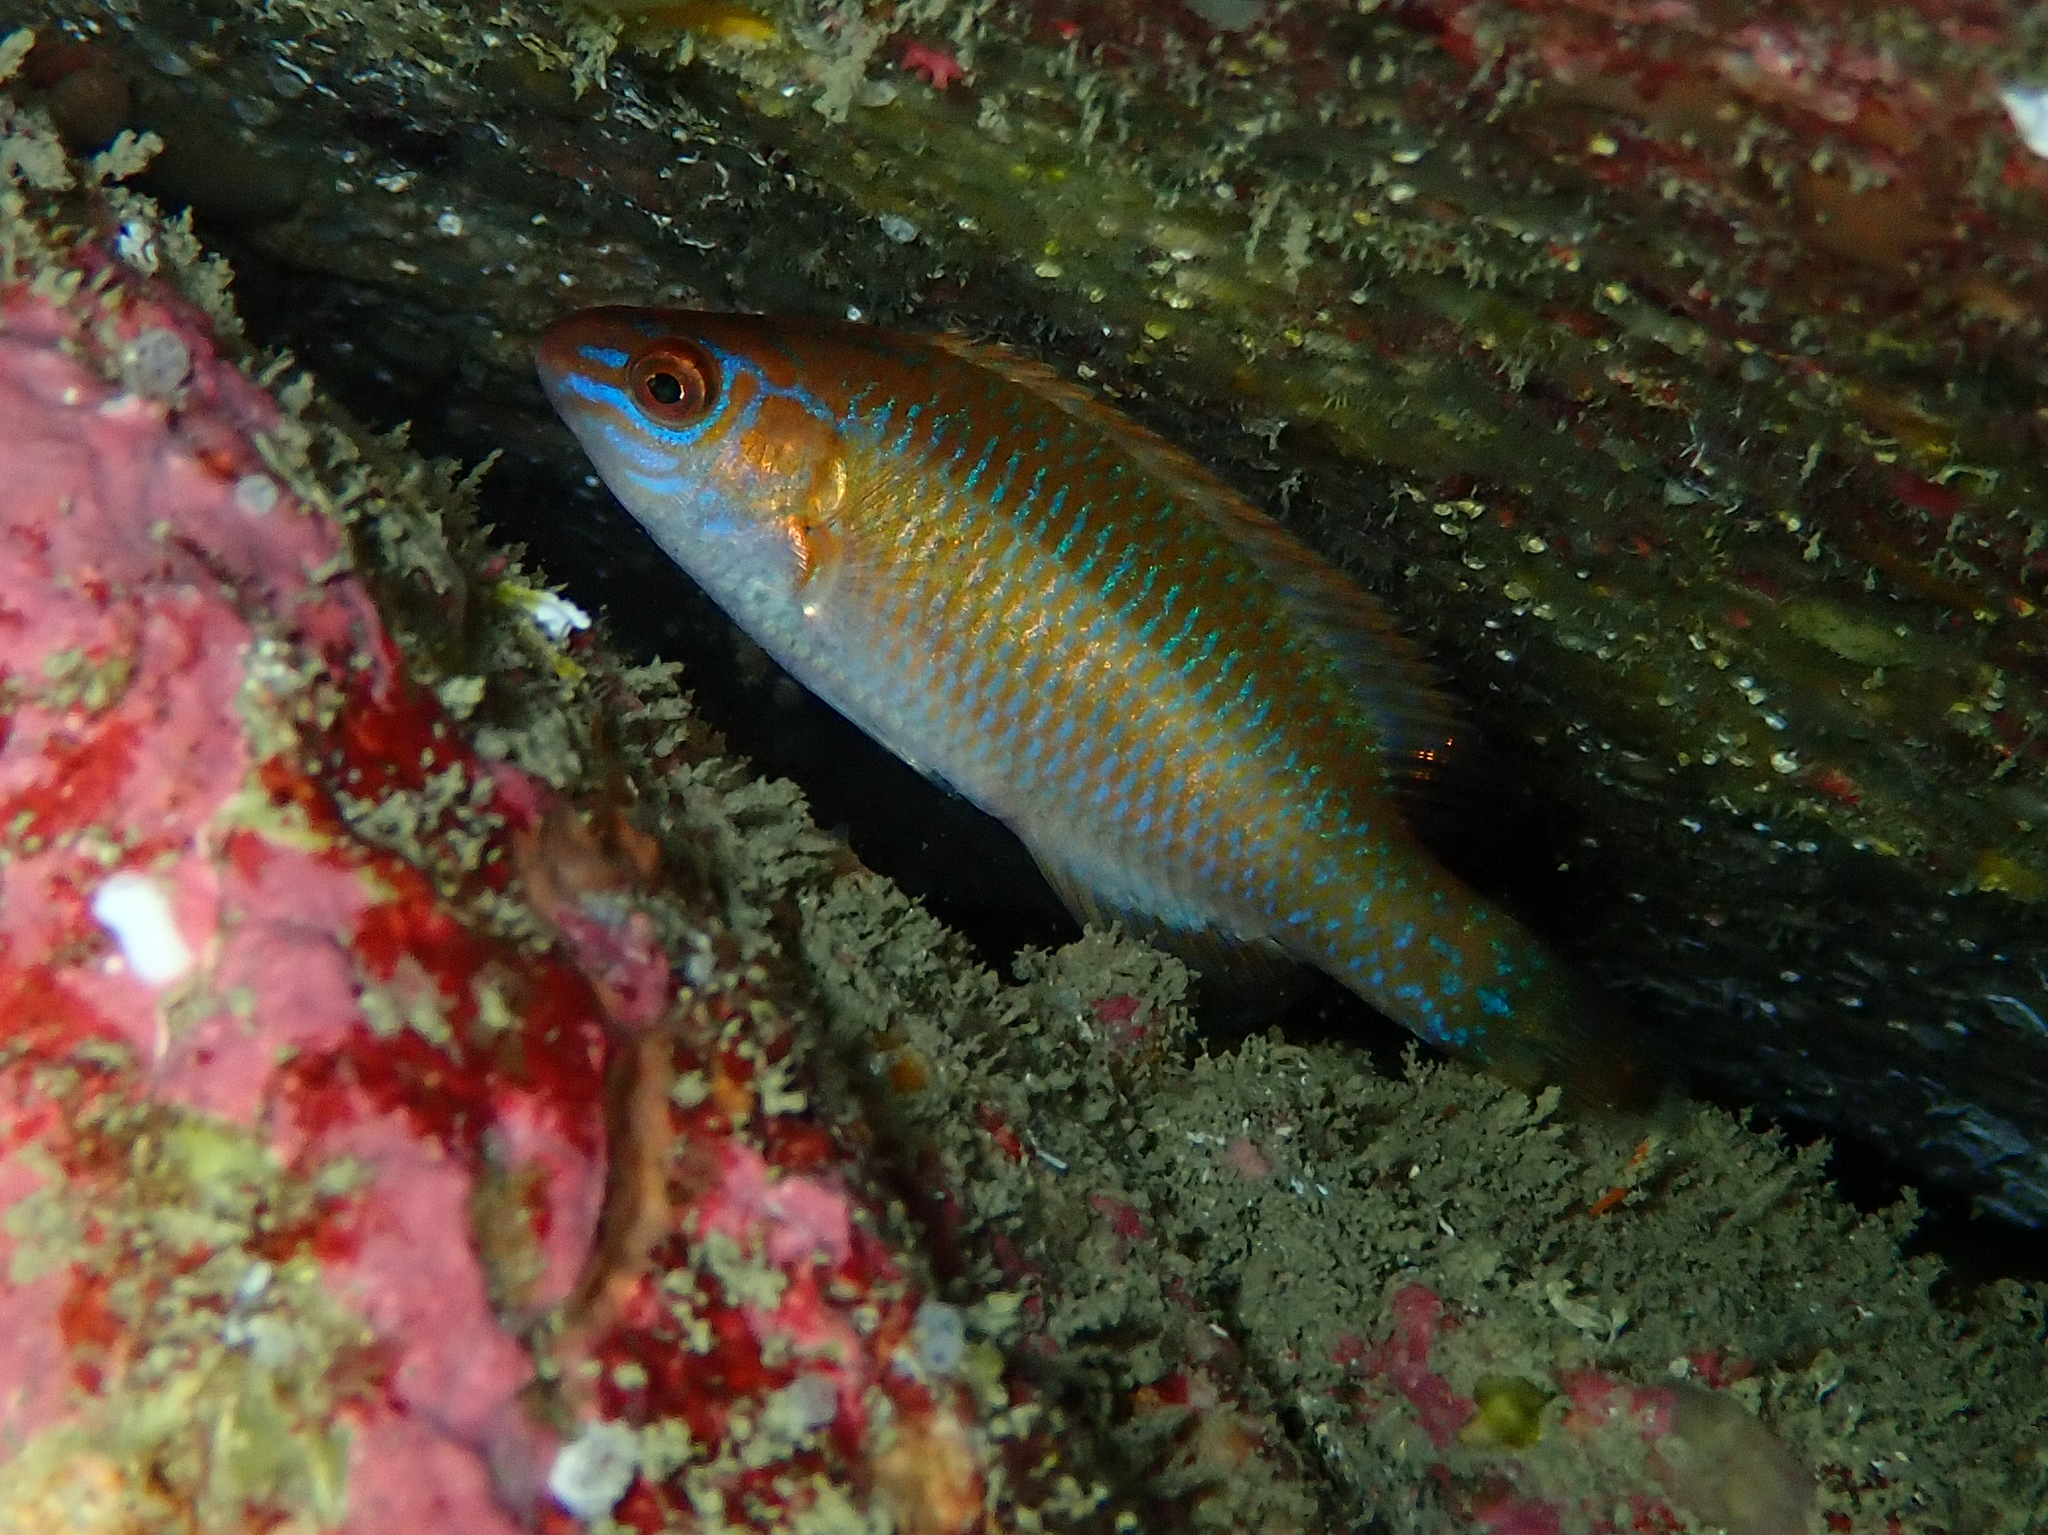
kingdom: Animalia
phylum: Chordata
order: Perciformes
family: Labridae
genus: Centrolabrus
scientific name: Centrolabrus exoletus
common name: Rock cook
